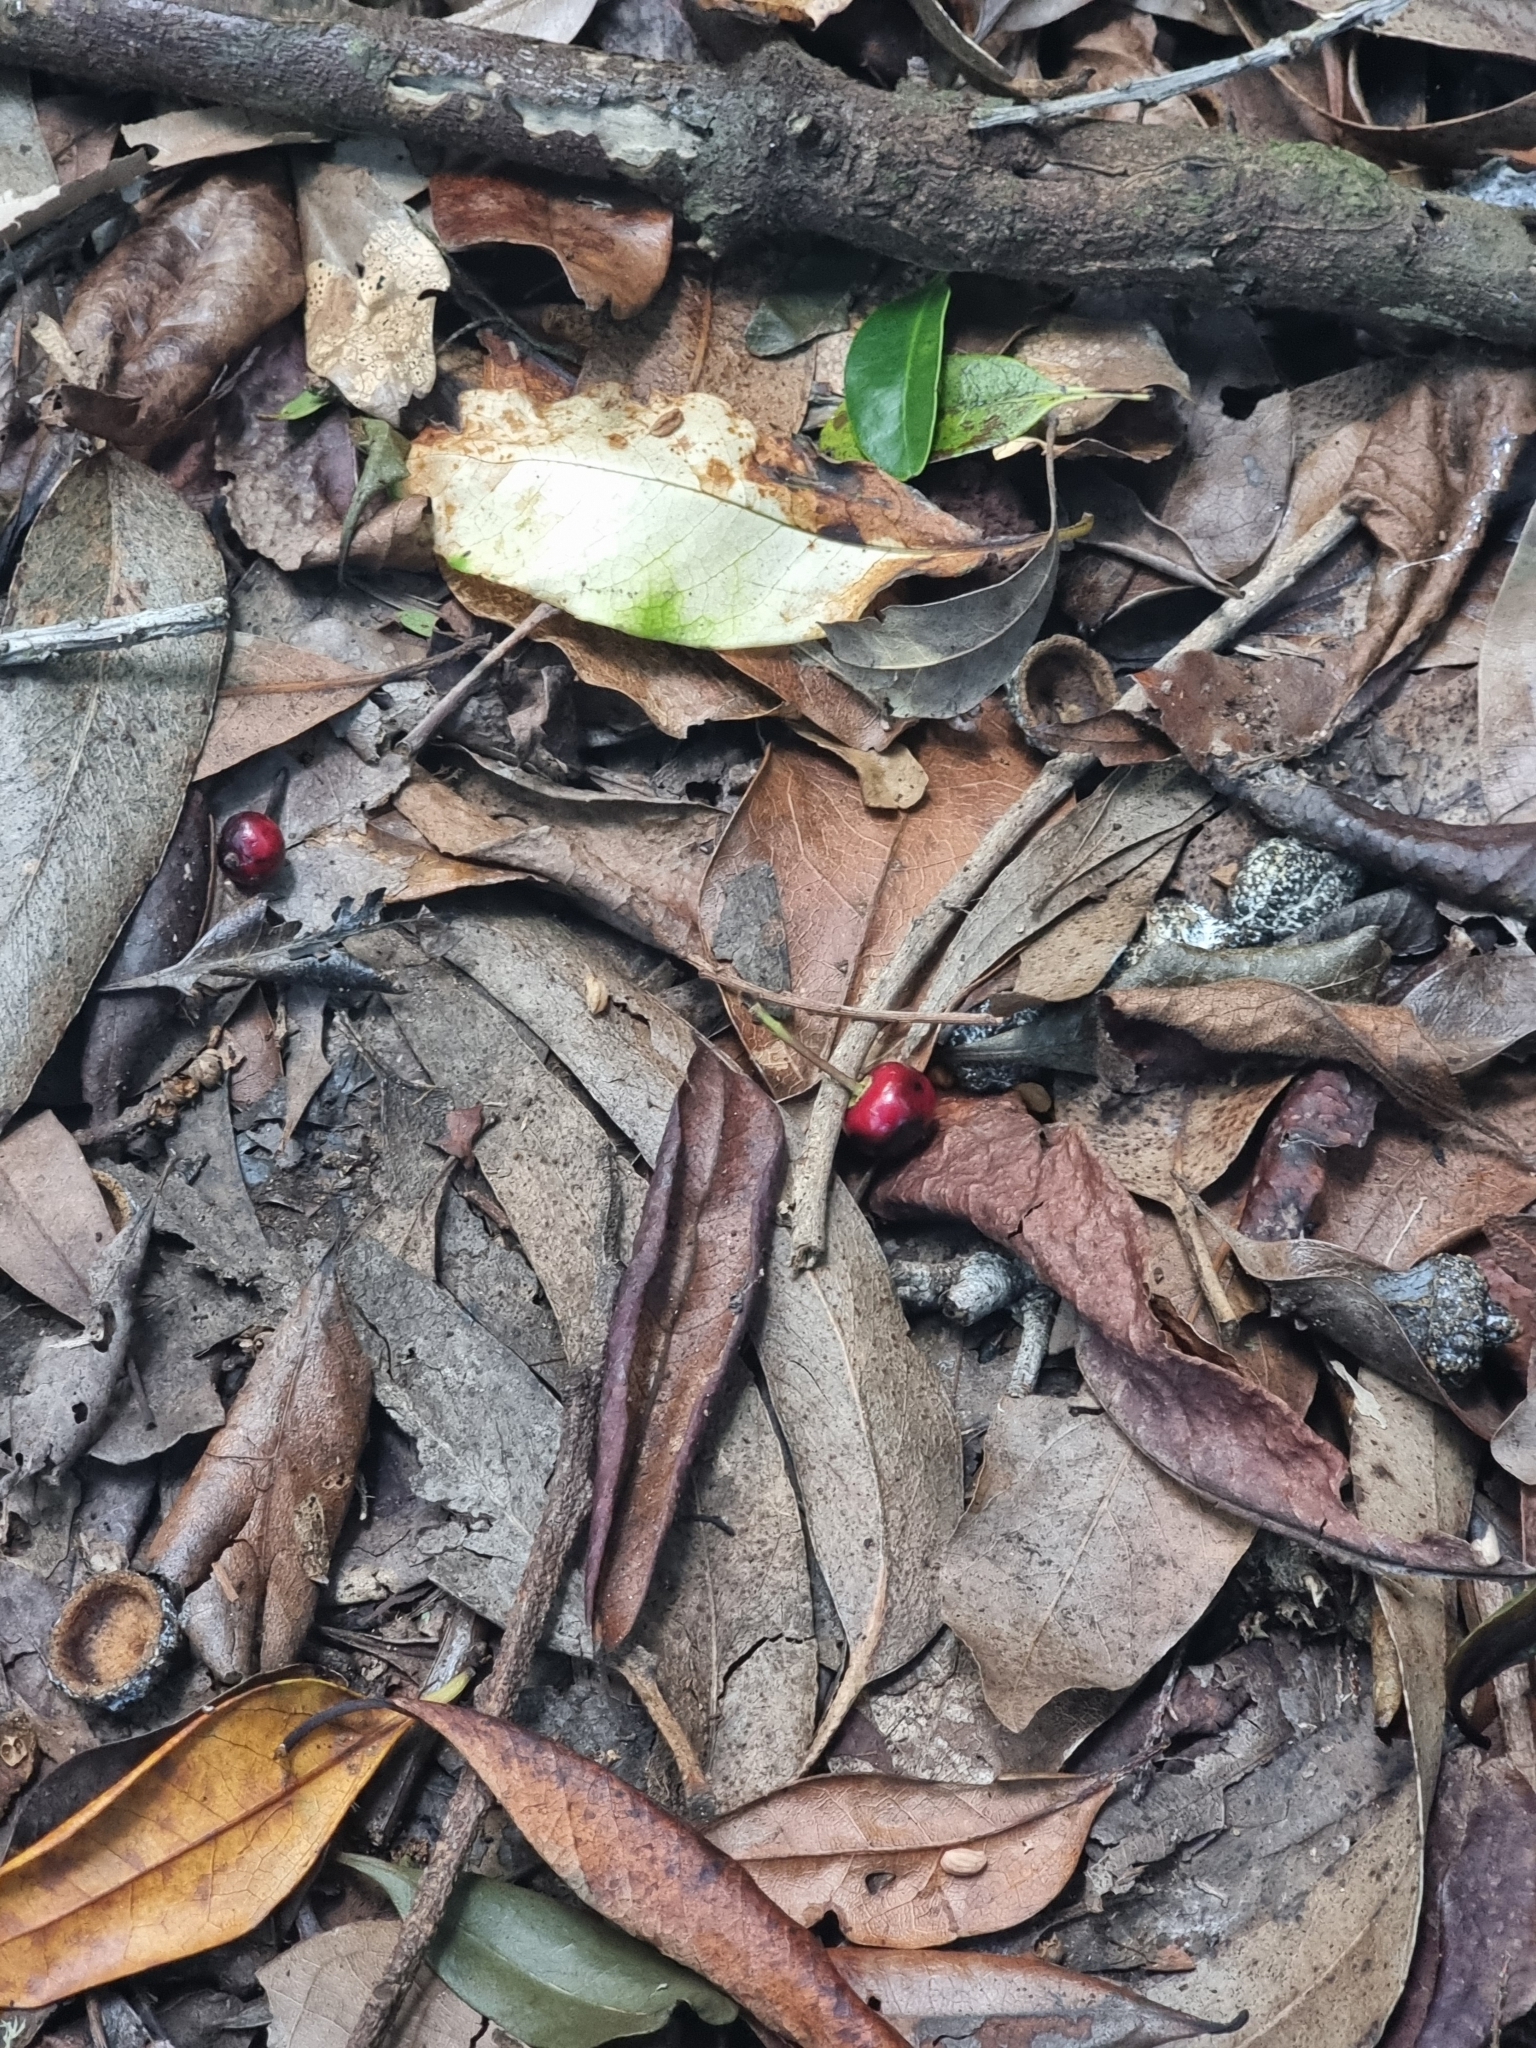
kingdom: Plantae
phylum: Tracheophyta
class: Magnoliopsida
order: Aquifoliales
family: Aquifoliaceae
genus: Ilex
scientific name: Ilex canariensis
